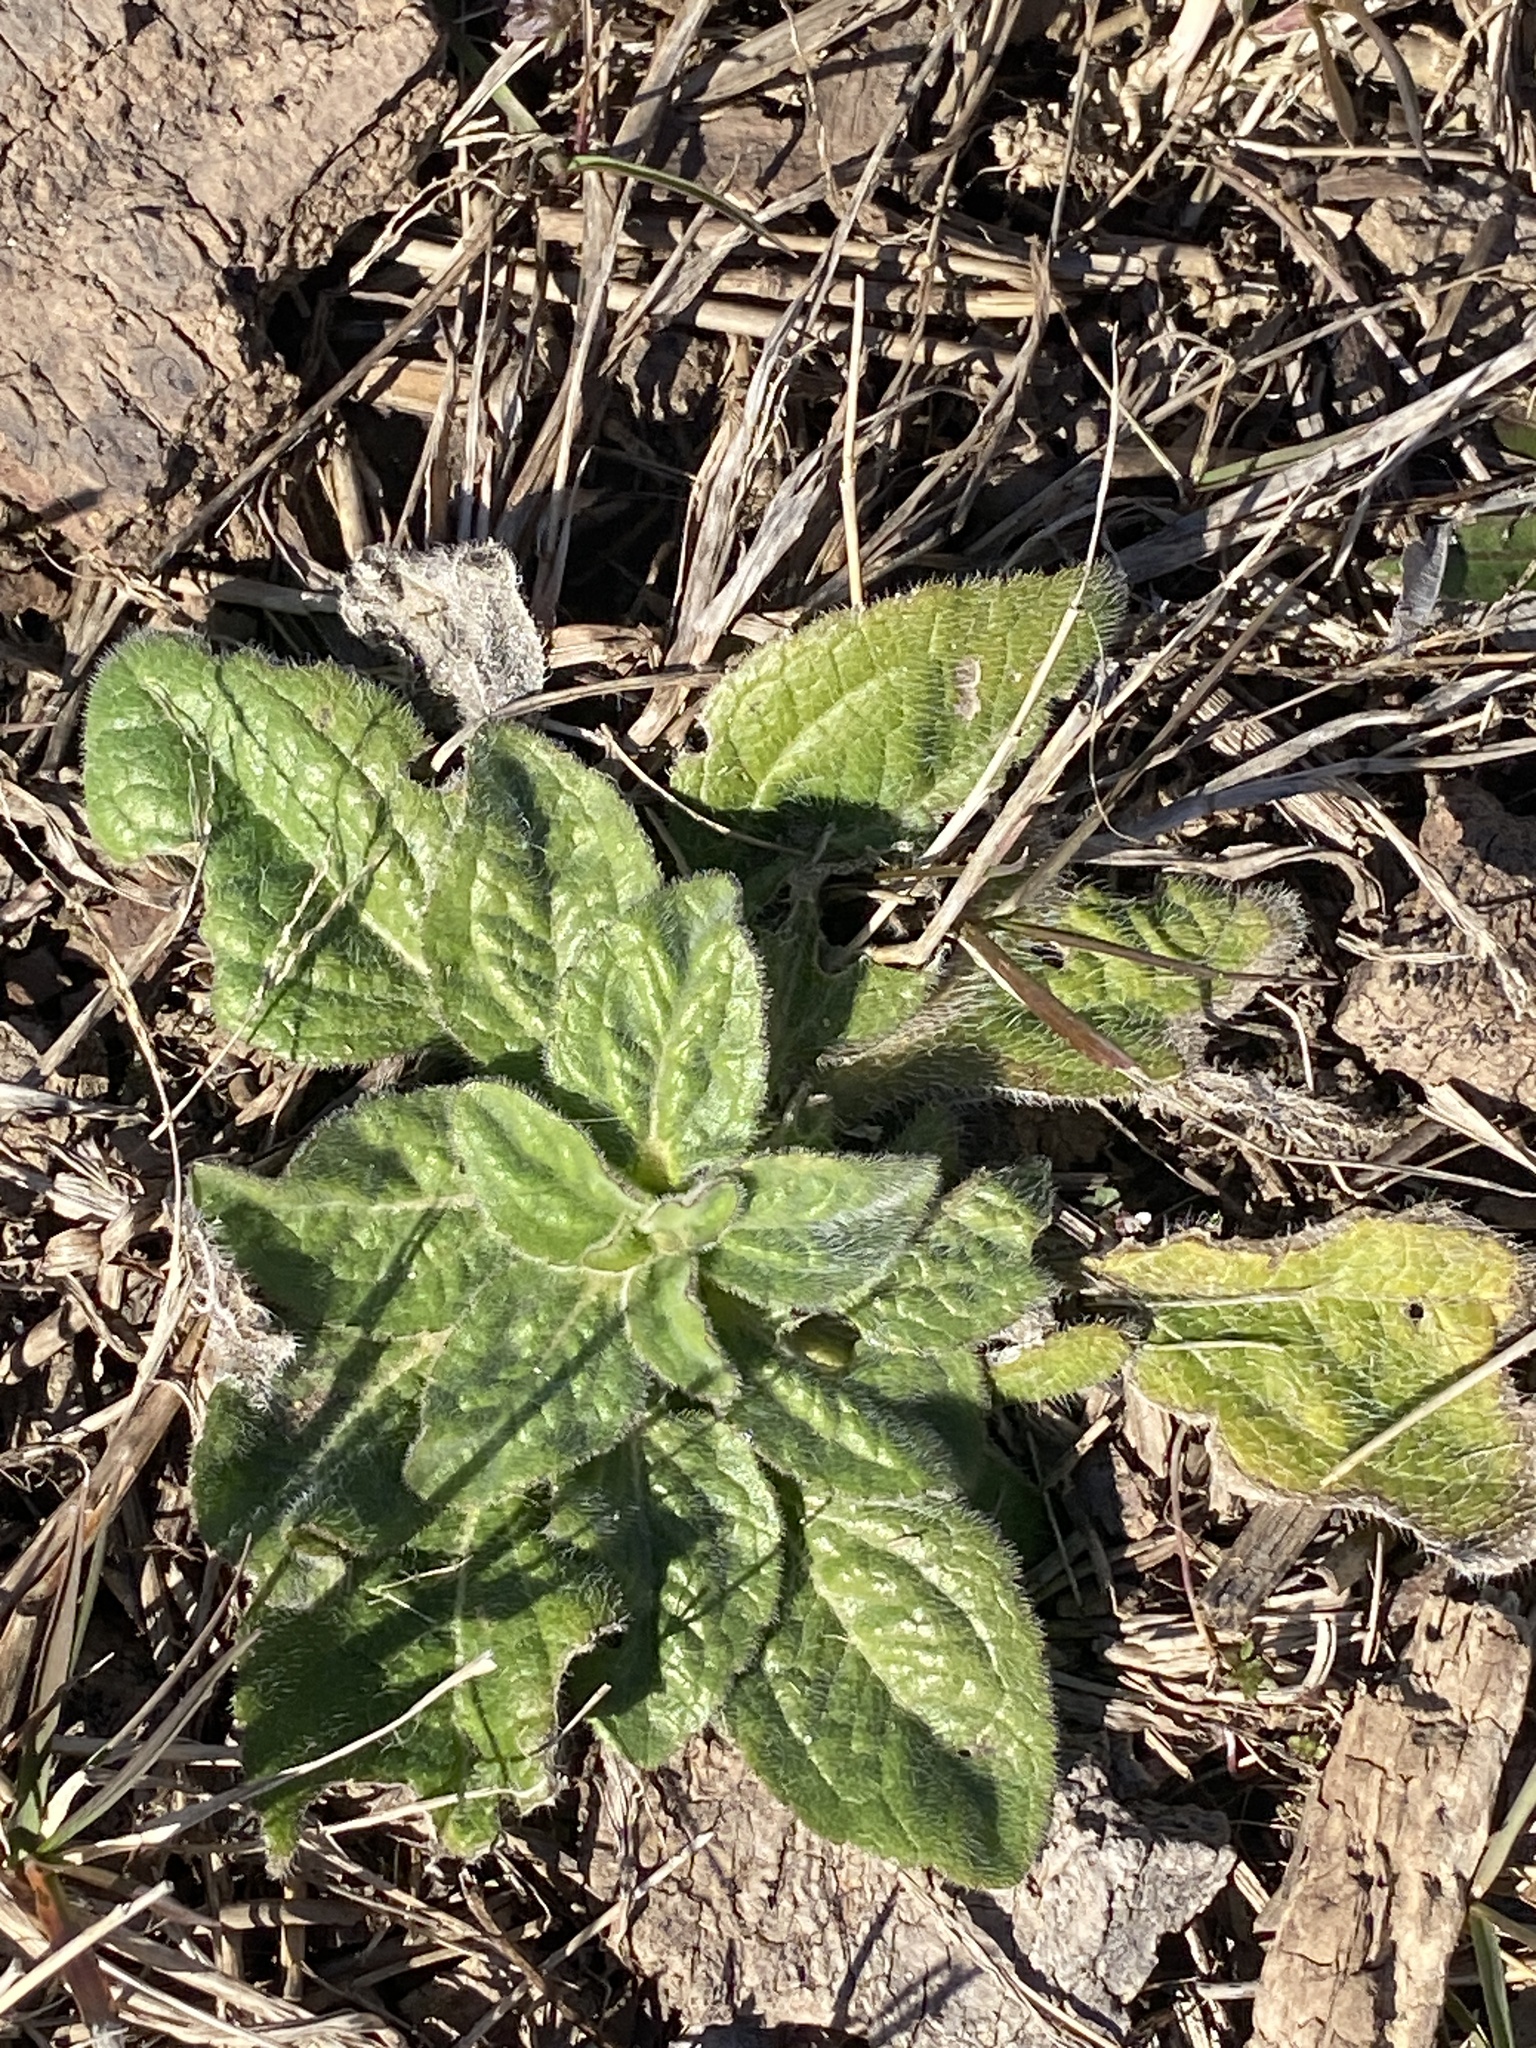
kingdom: Plantae
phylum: Tracheophyta
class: Magnoliopsida
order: Asterales
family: Asteraceae
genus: Rudbeckia
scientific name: Rudbeckia hirta
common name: Black-eyed-susan
